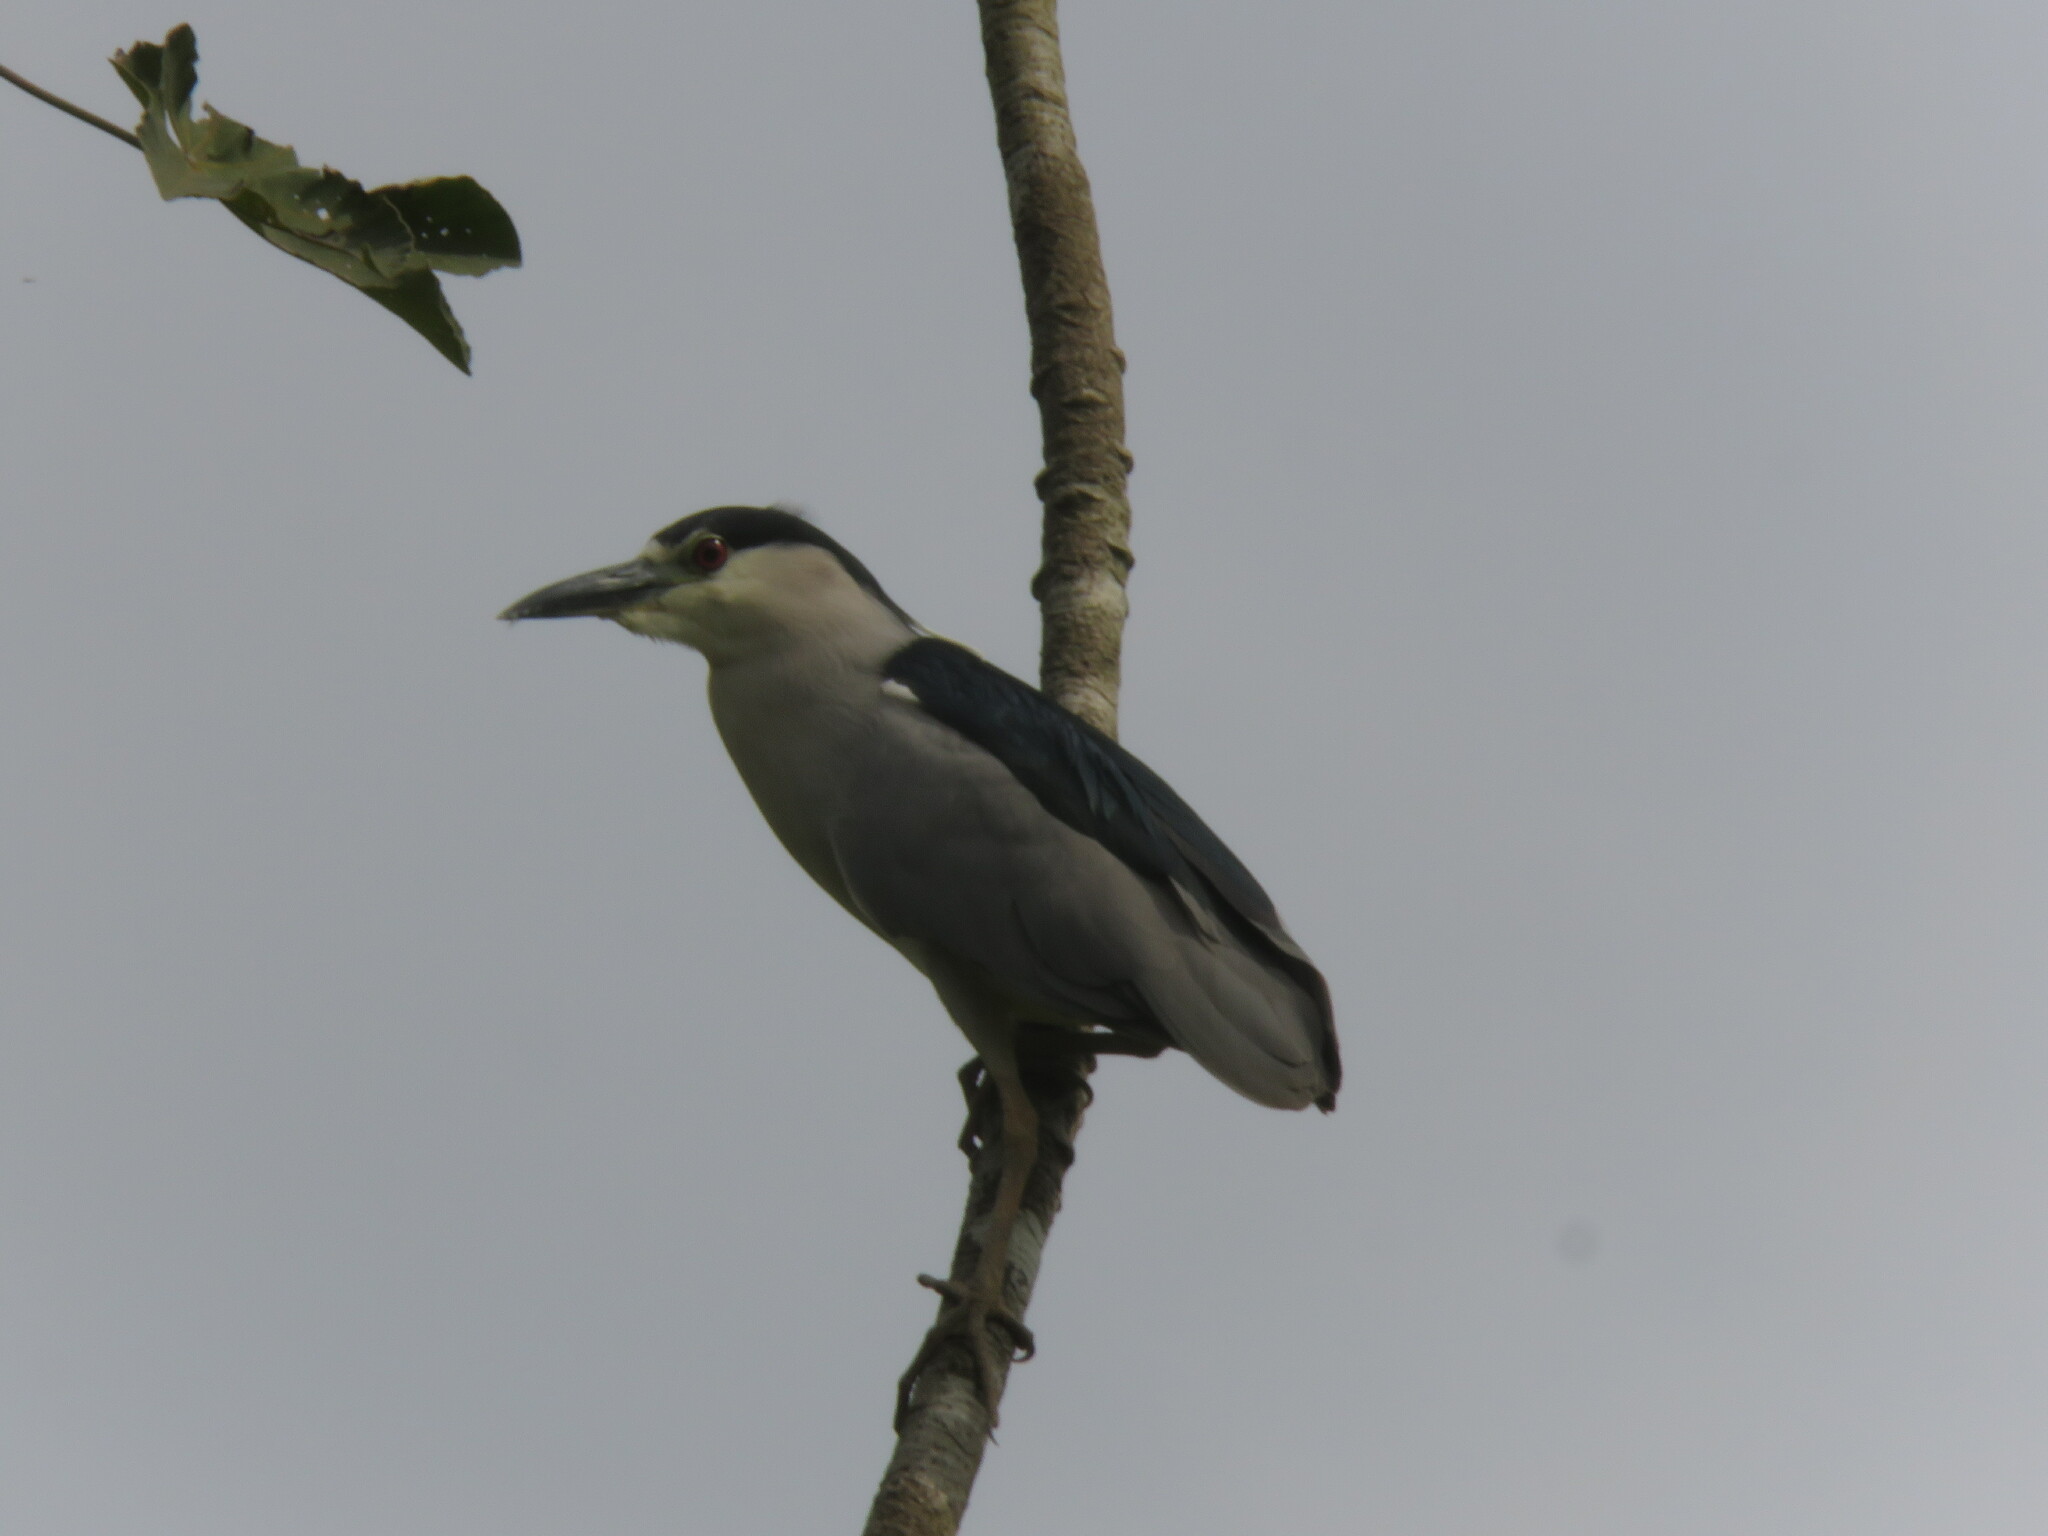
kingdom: Animalia
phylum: Chordata
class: Aves
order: Pelecaniformes
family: Ardeidae
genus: Nycticorax
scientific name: Nycticorax nycticorax
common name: Black-crowned night heron
